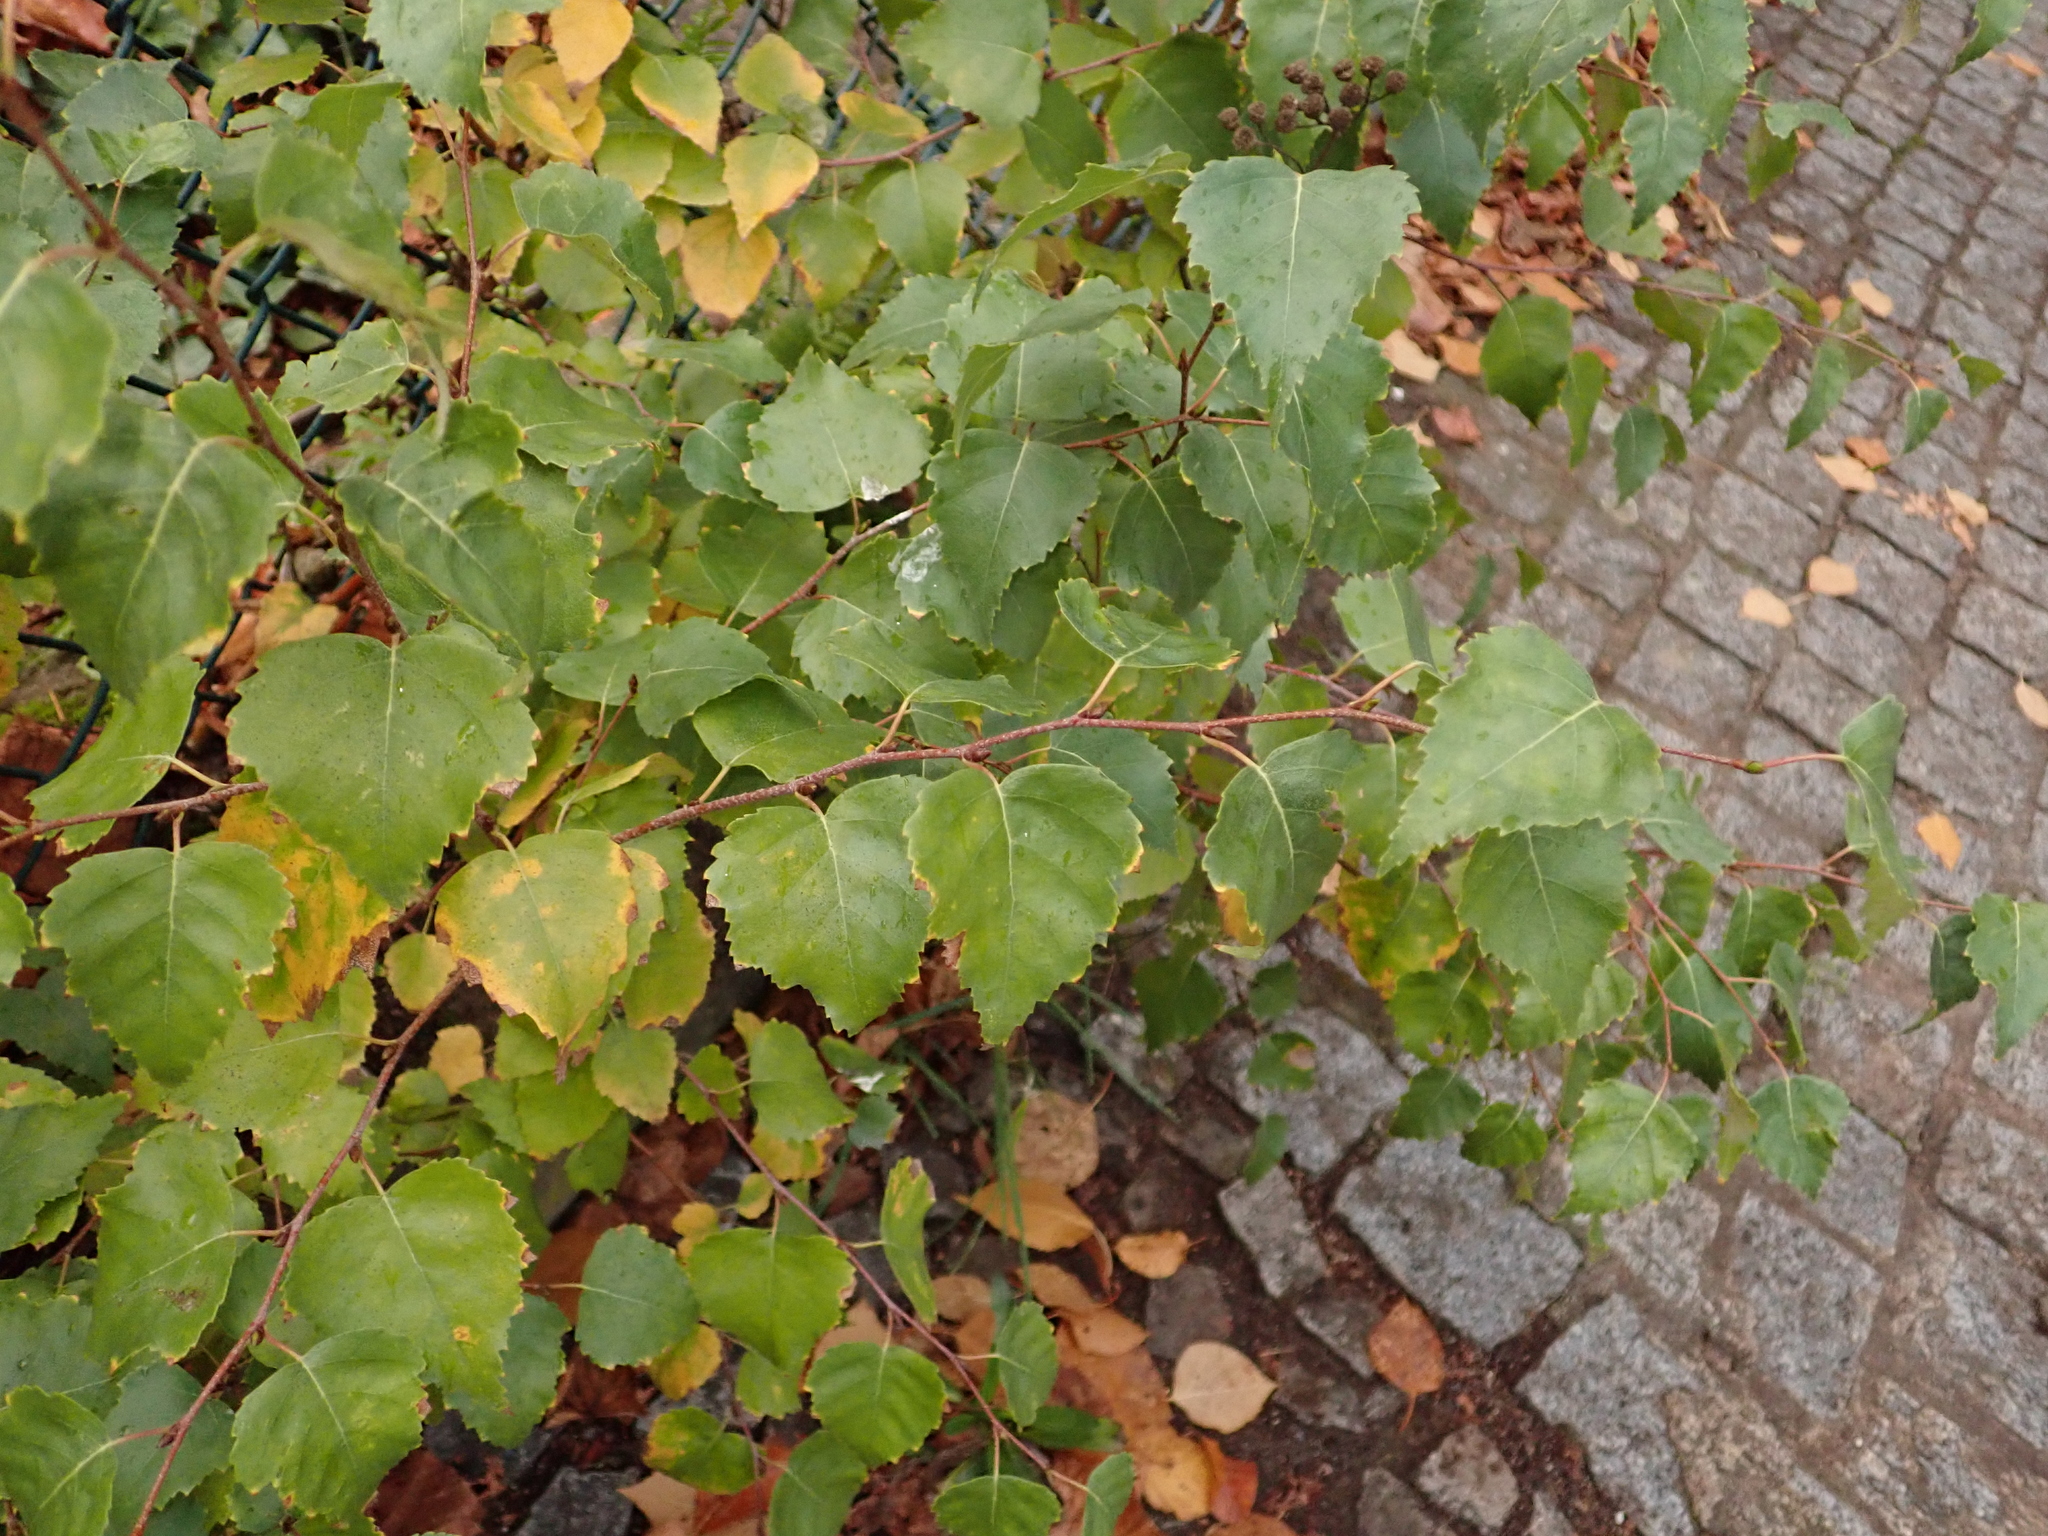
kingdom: Plantae
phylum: Tracheophyta
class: Magnoliopsida
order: Fagales
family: Betulaceae
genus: Betula
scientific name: Betula pendula
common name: Silver birch
